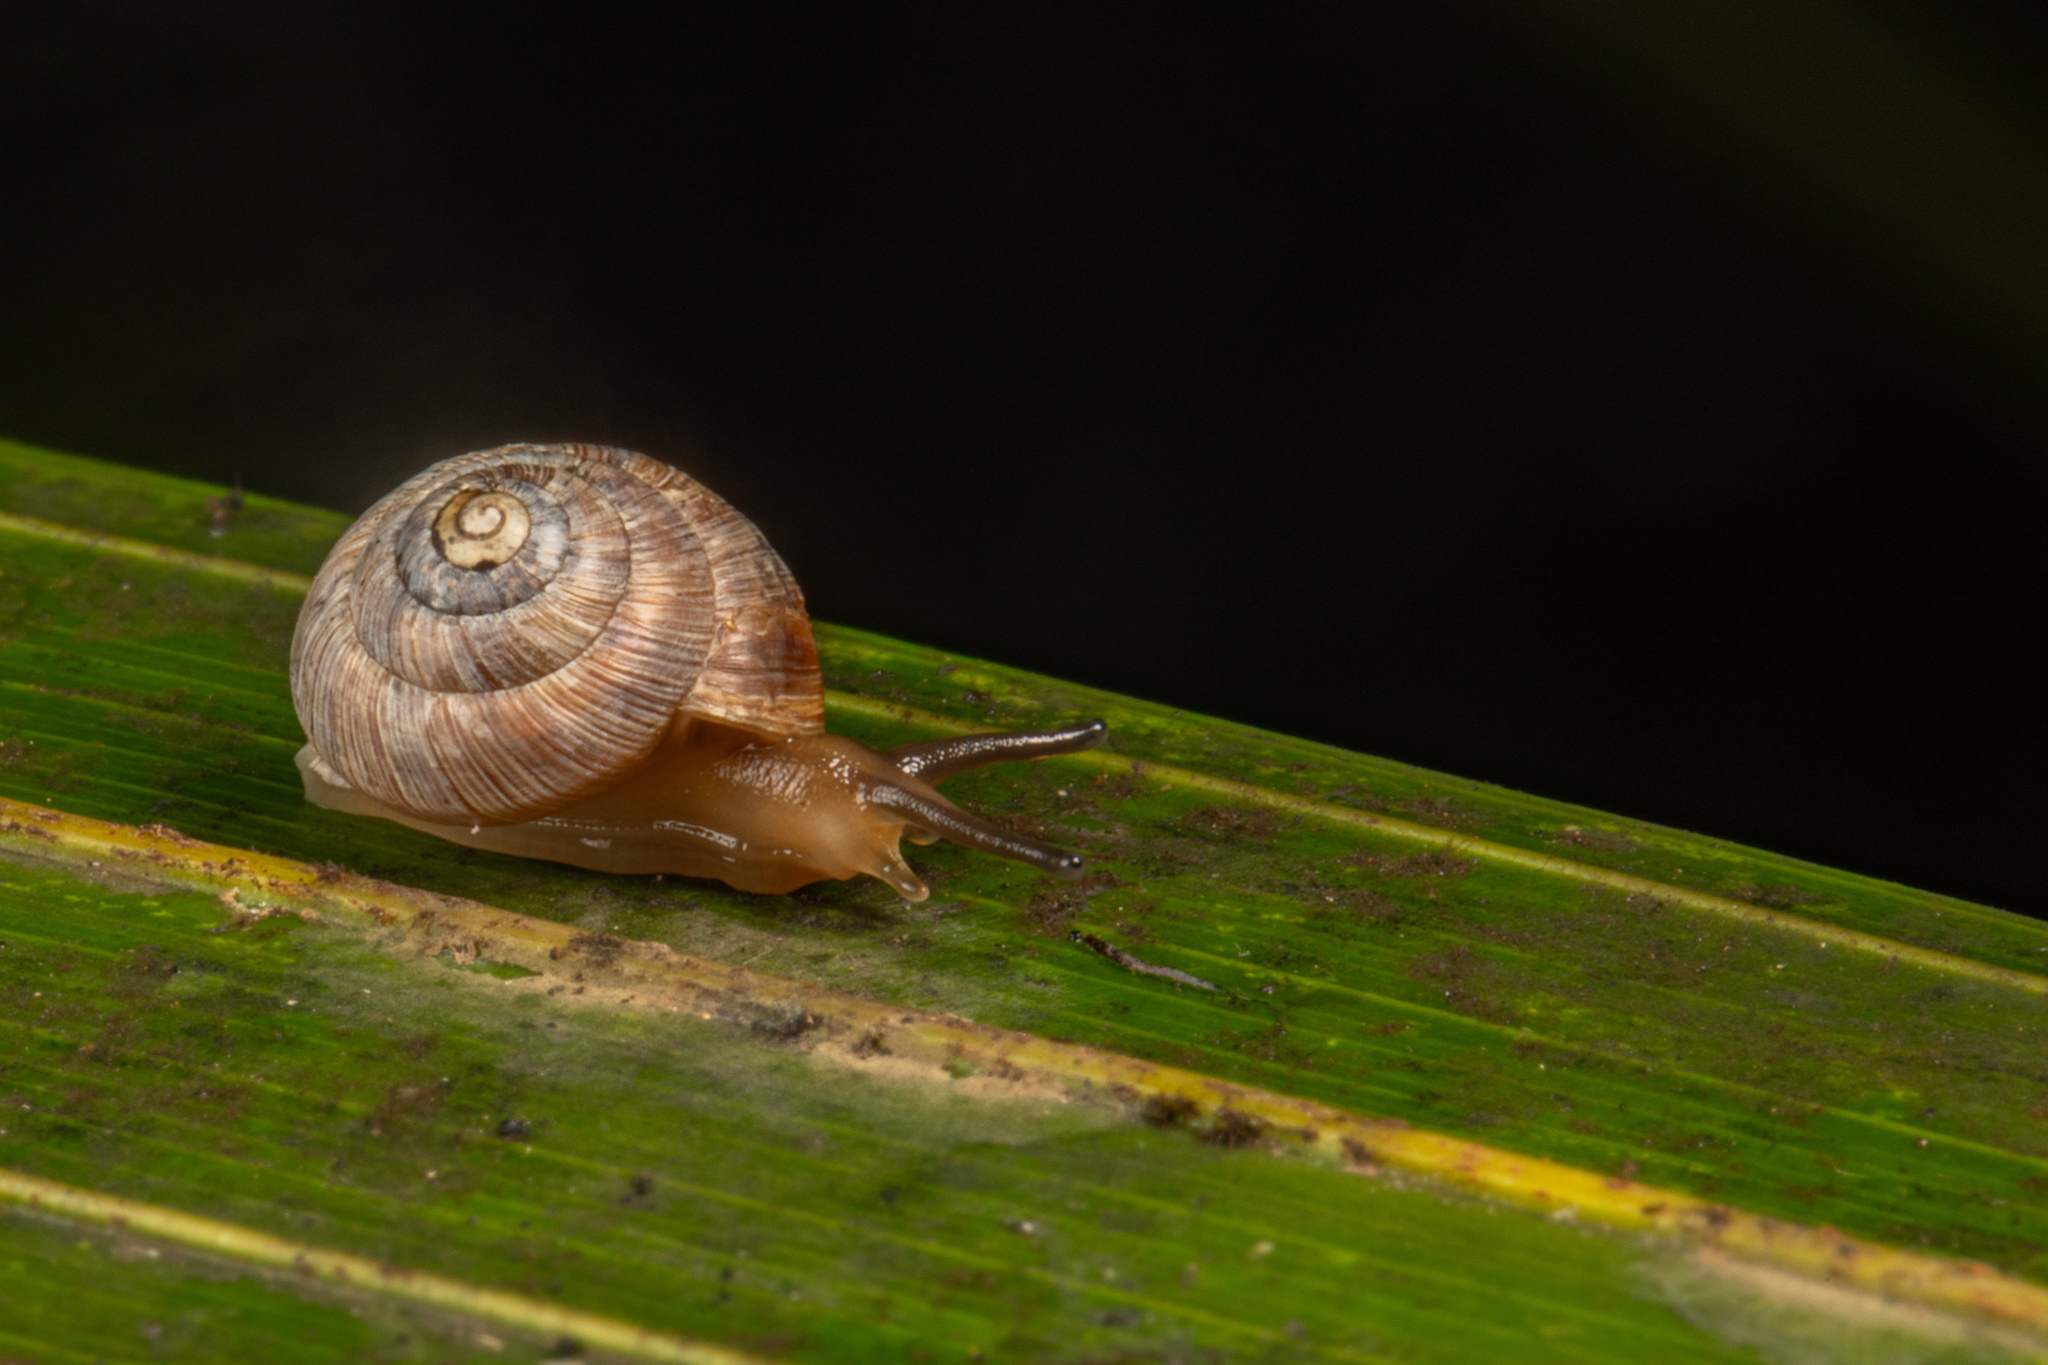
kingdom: Animalia
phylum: Mollusca
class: Gastropoda
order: Stylommatophora
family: Charopidae
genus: Serpho
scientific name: Serpho
